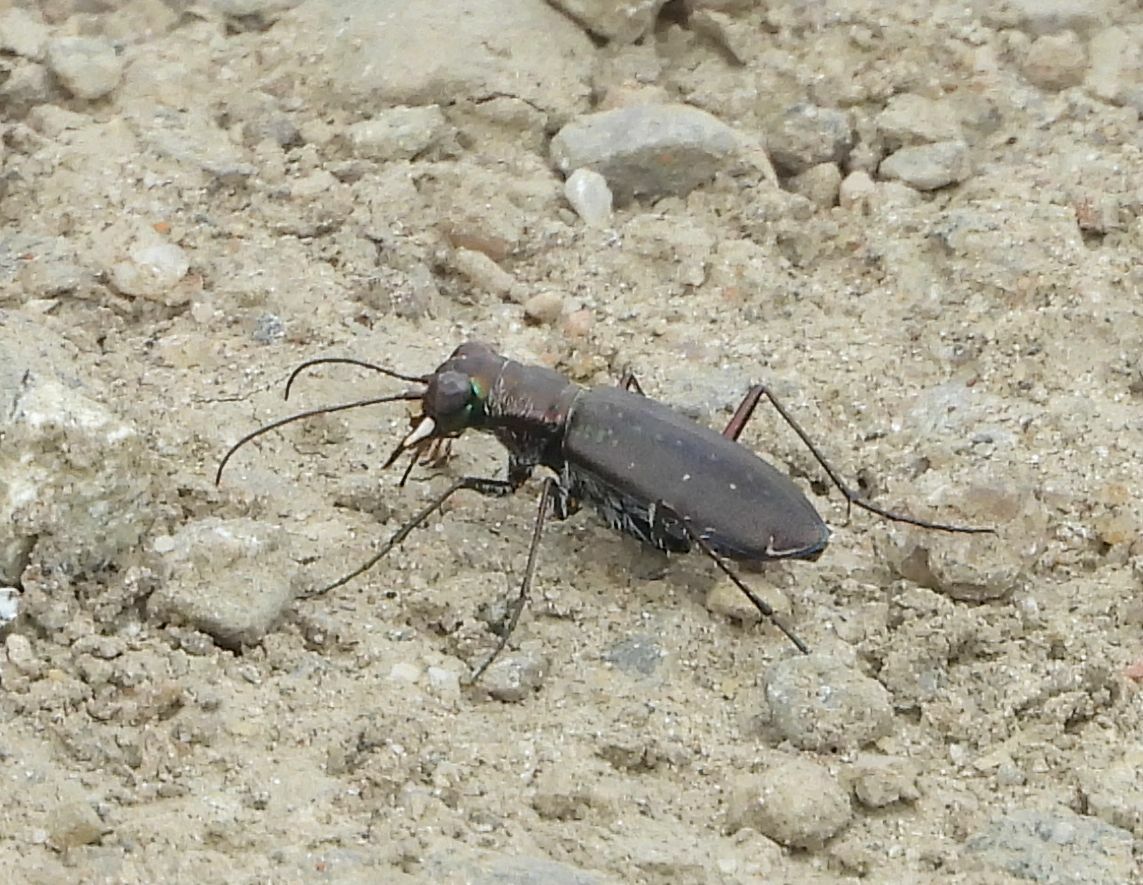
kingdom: Animalia
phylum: Arthropoda
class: Insecta
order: Coleoptera
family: Carabidae
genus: Cicindela
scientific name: Cicindela punctulata
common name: Punctured tiger beetle
